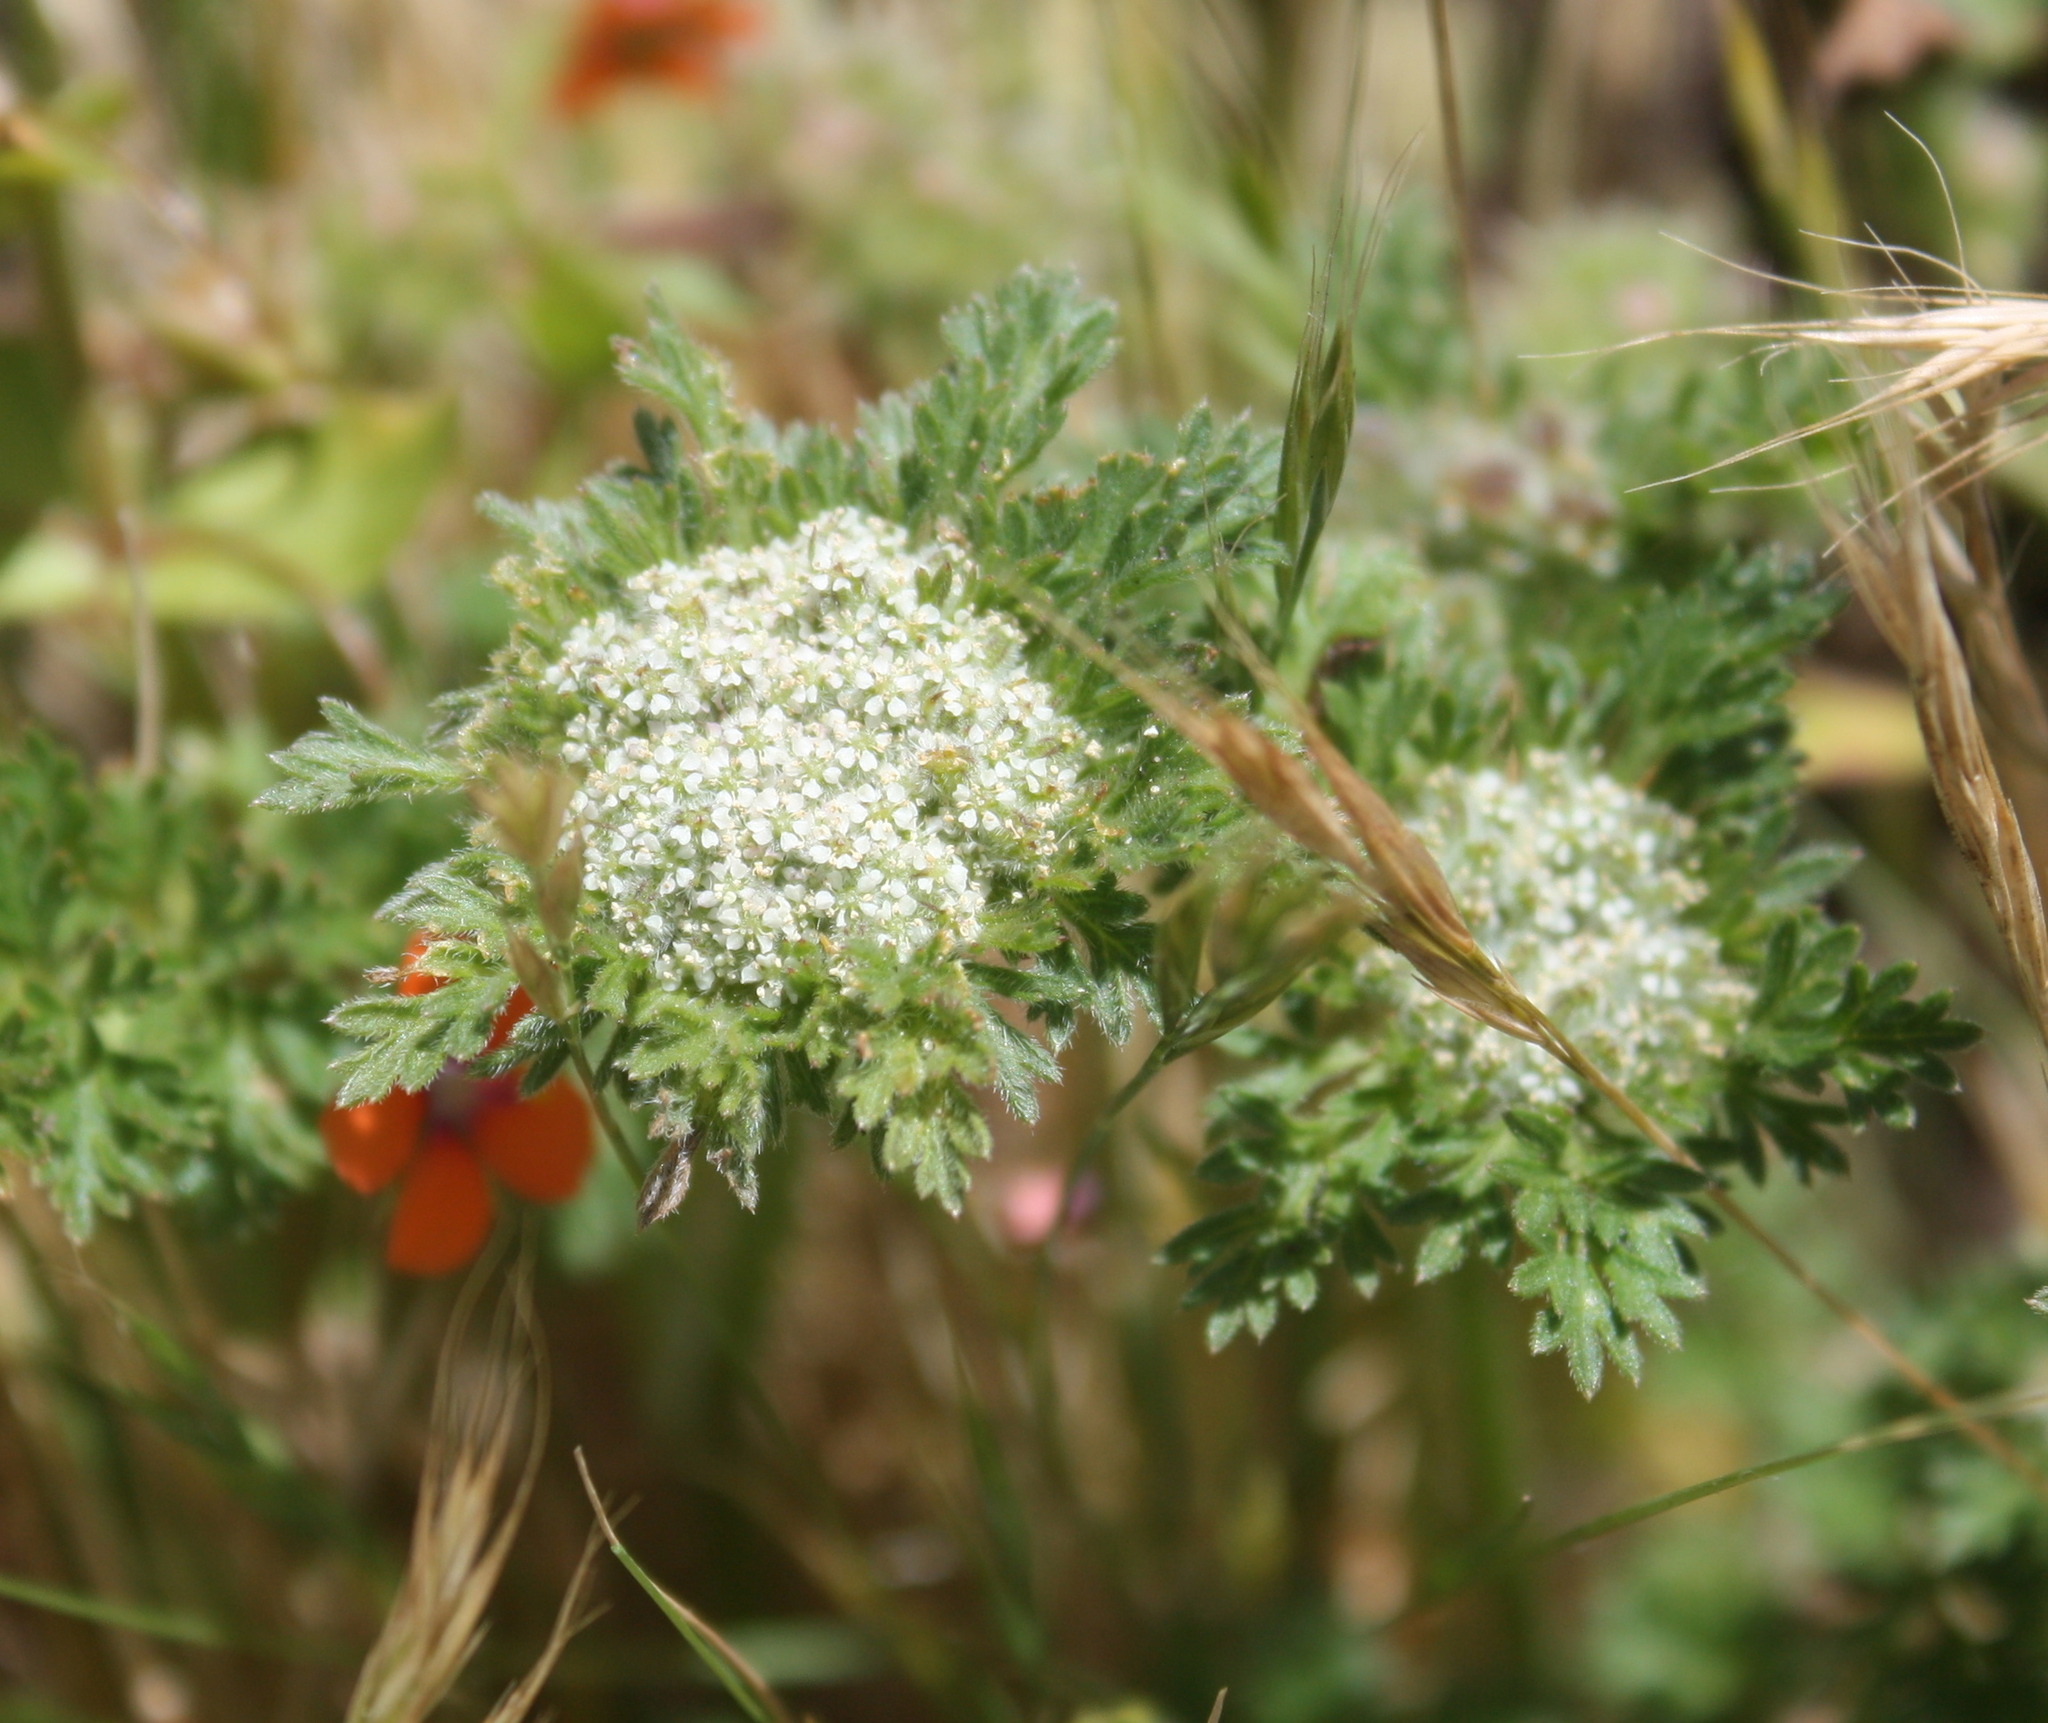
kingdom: Plantae
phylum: Tracheophyta
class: Magnoliopsida
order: Apiales
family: Apiaceae
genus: Daucus
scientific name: Daucus pusillus
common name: Southwest wild carrot
